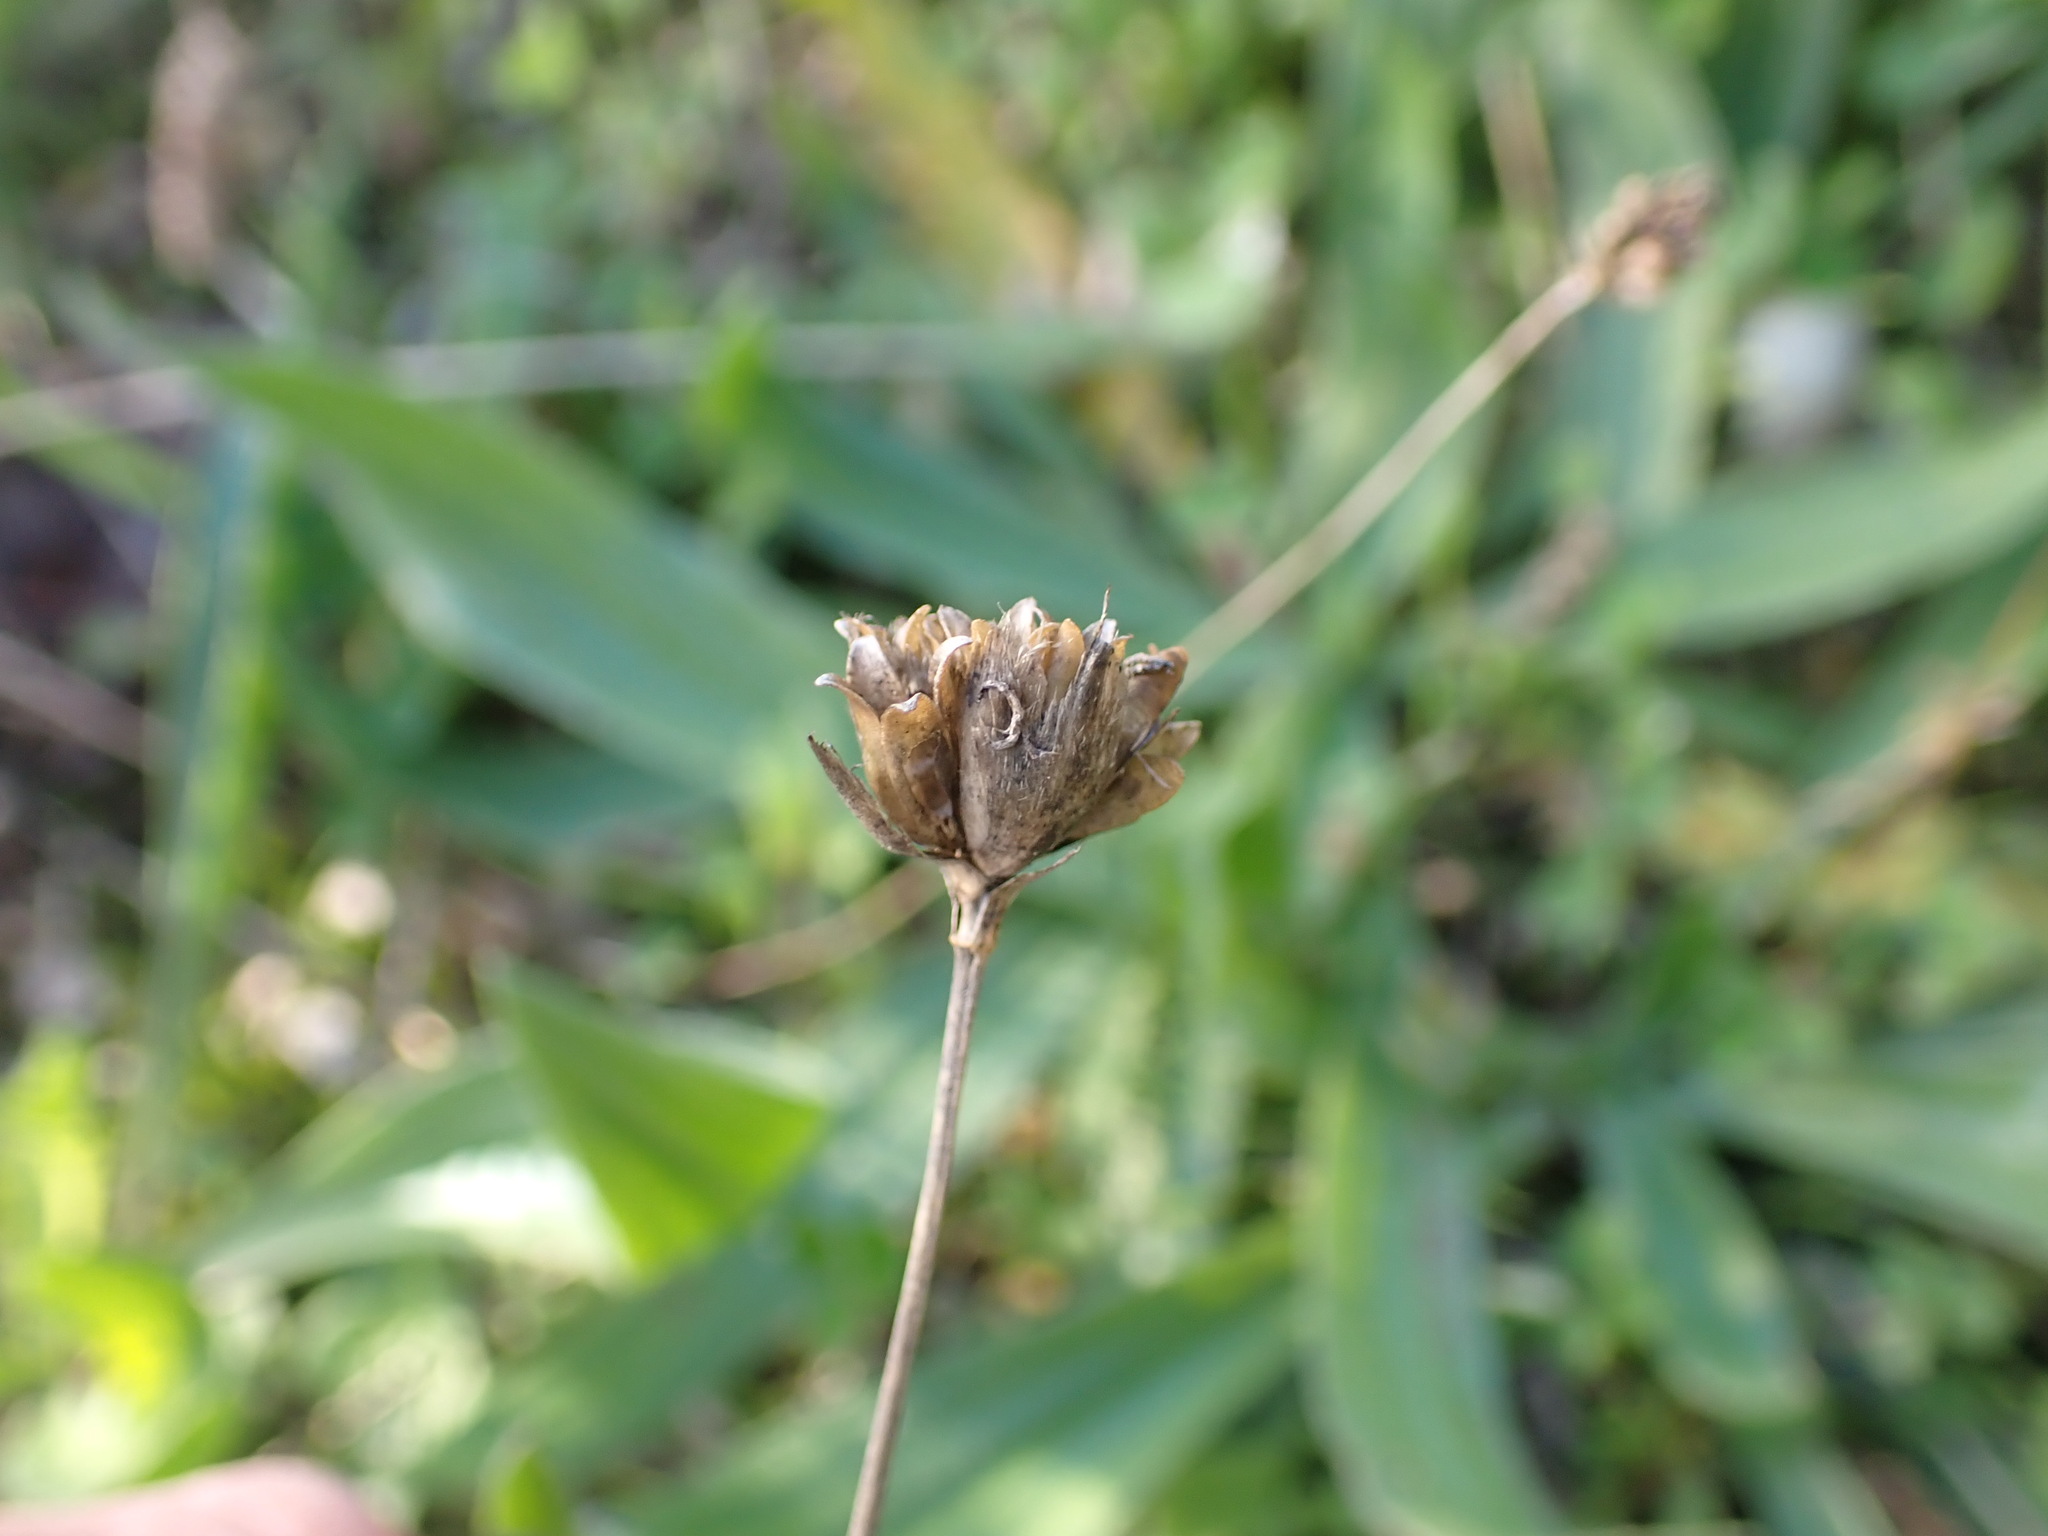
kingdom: Plantae
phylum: Tracheophyta
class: Magnoliopsida
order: Caryophyllales
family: Caryophyllaceae
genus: Petrorhagia
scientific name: Petrorhagia prolifera
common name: Proliferous pink
